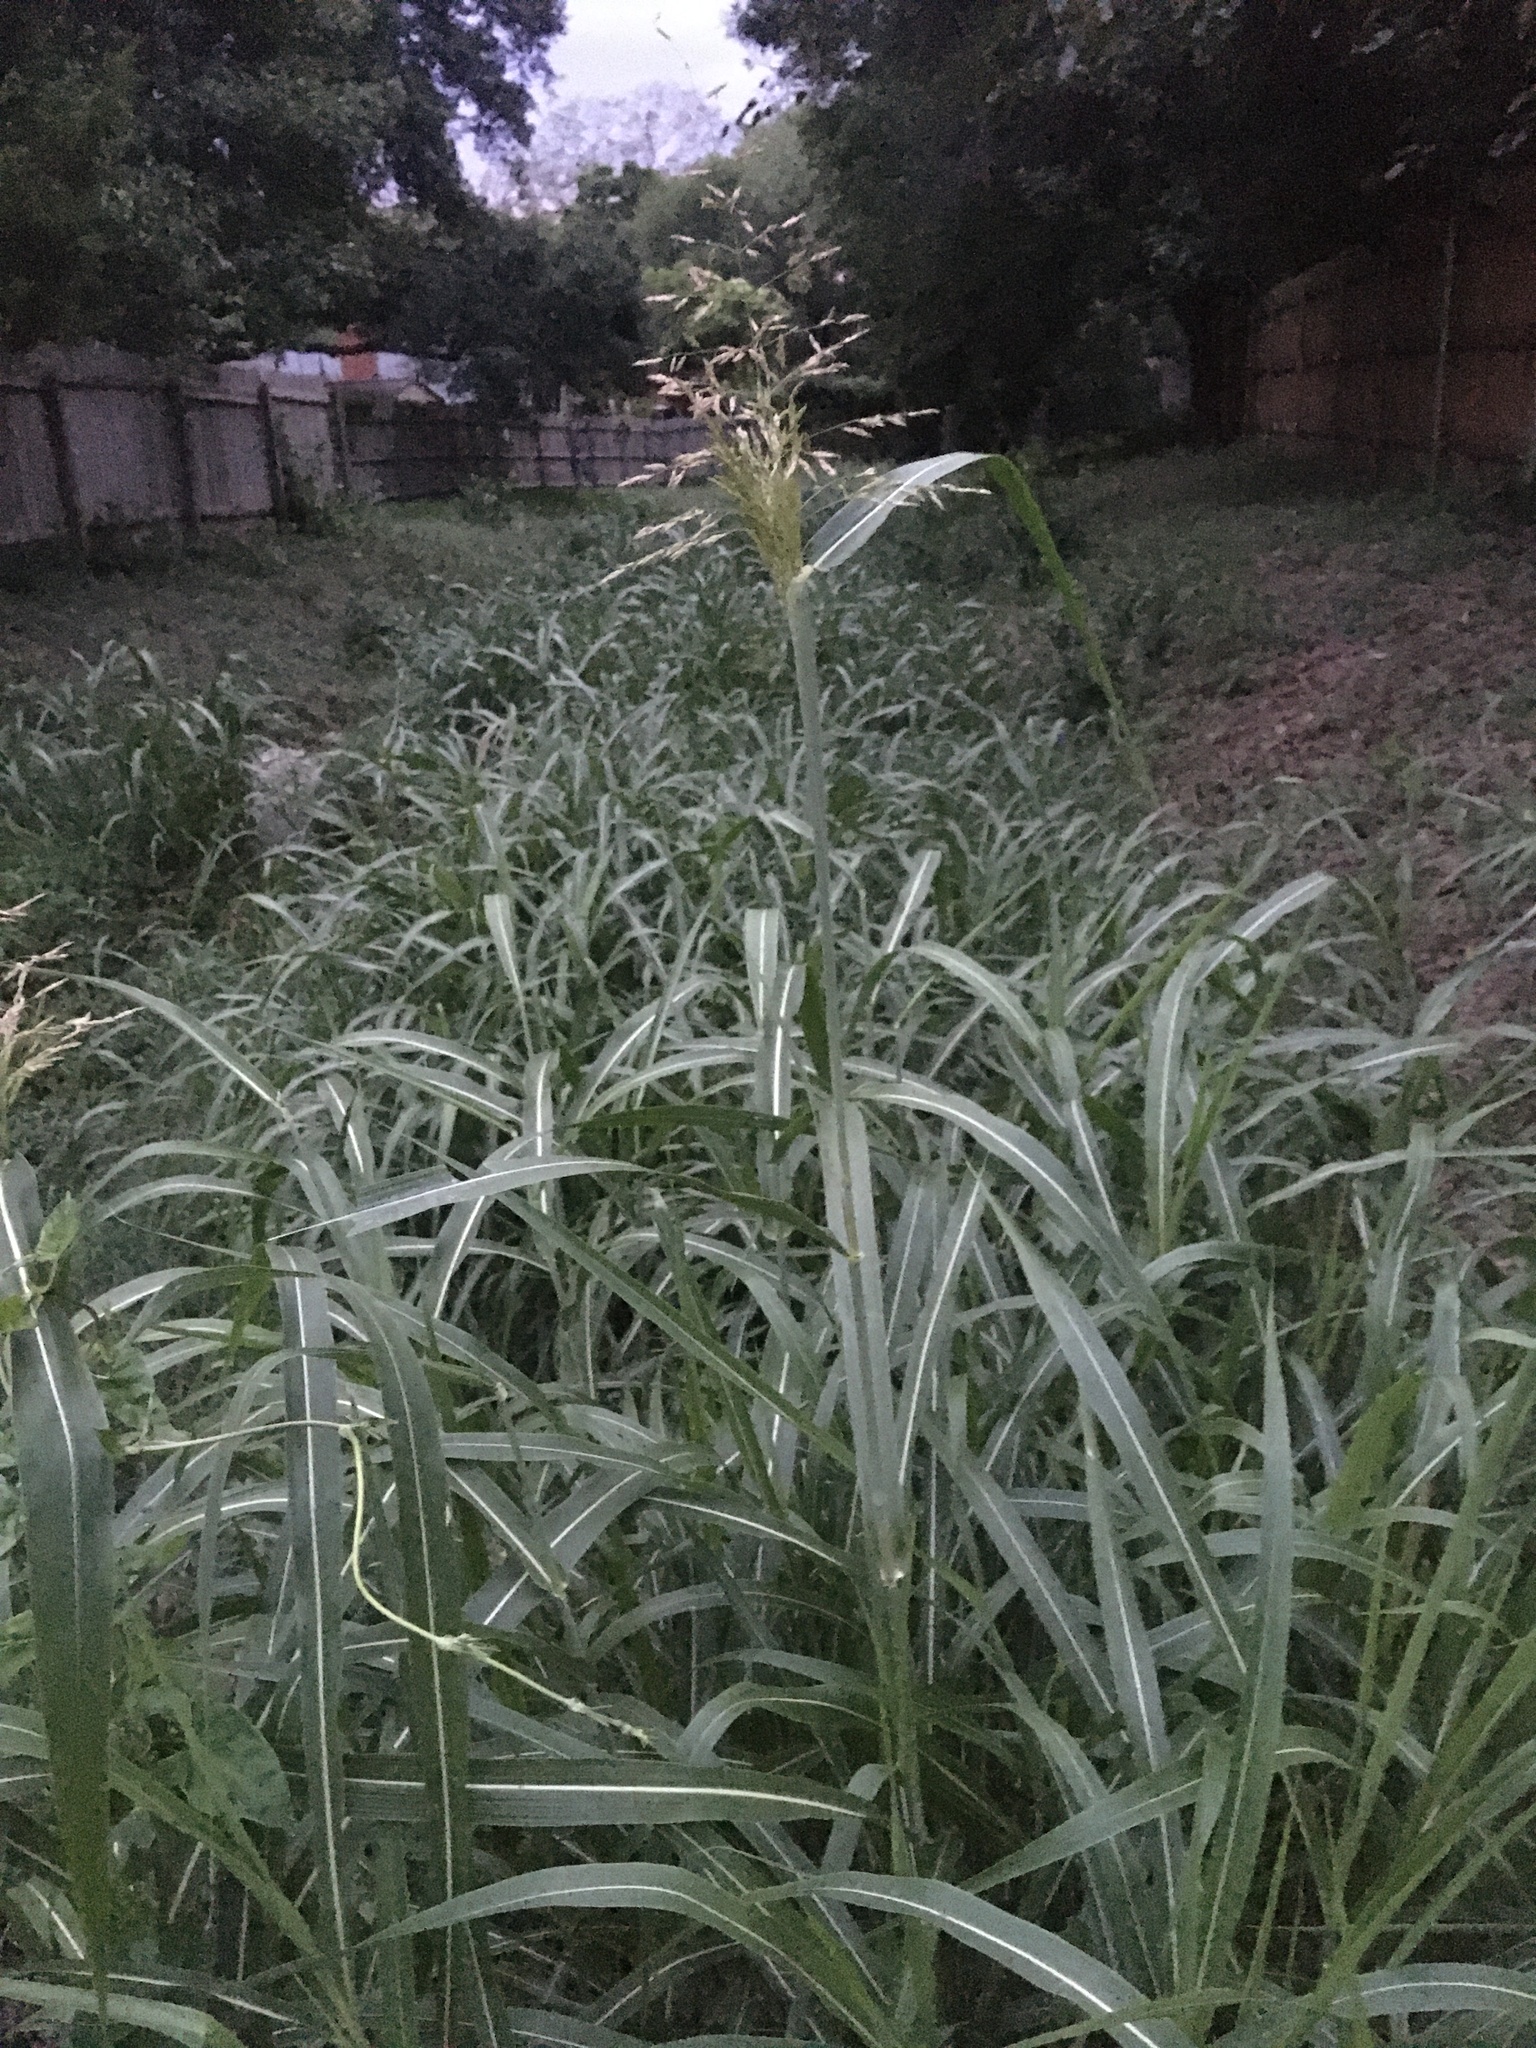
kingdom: Plantae
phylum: Tracheophyta
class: Liliopsida
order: Poales
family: Poaceae
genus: Sorghum
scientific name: Sorghum halepense
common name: Johnson-grass
